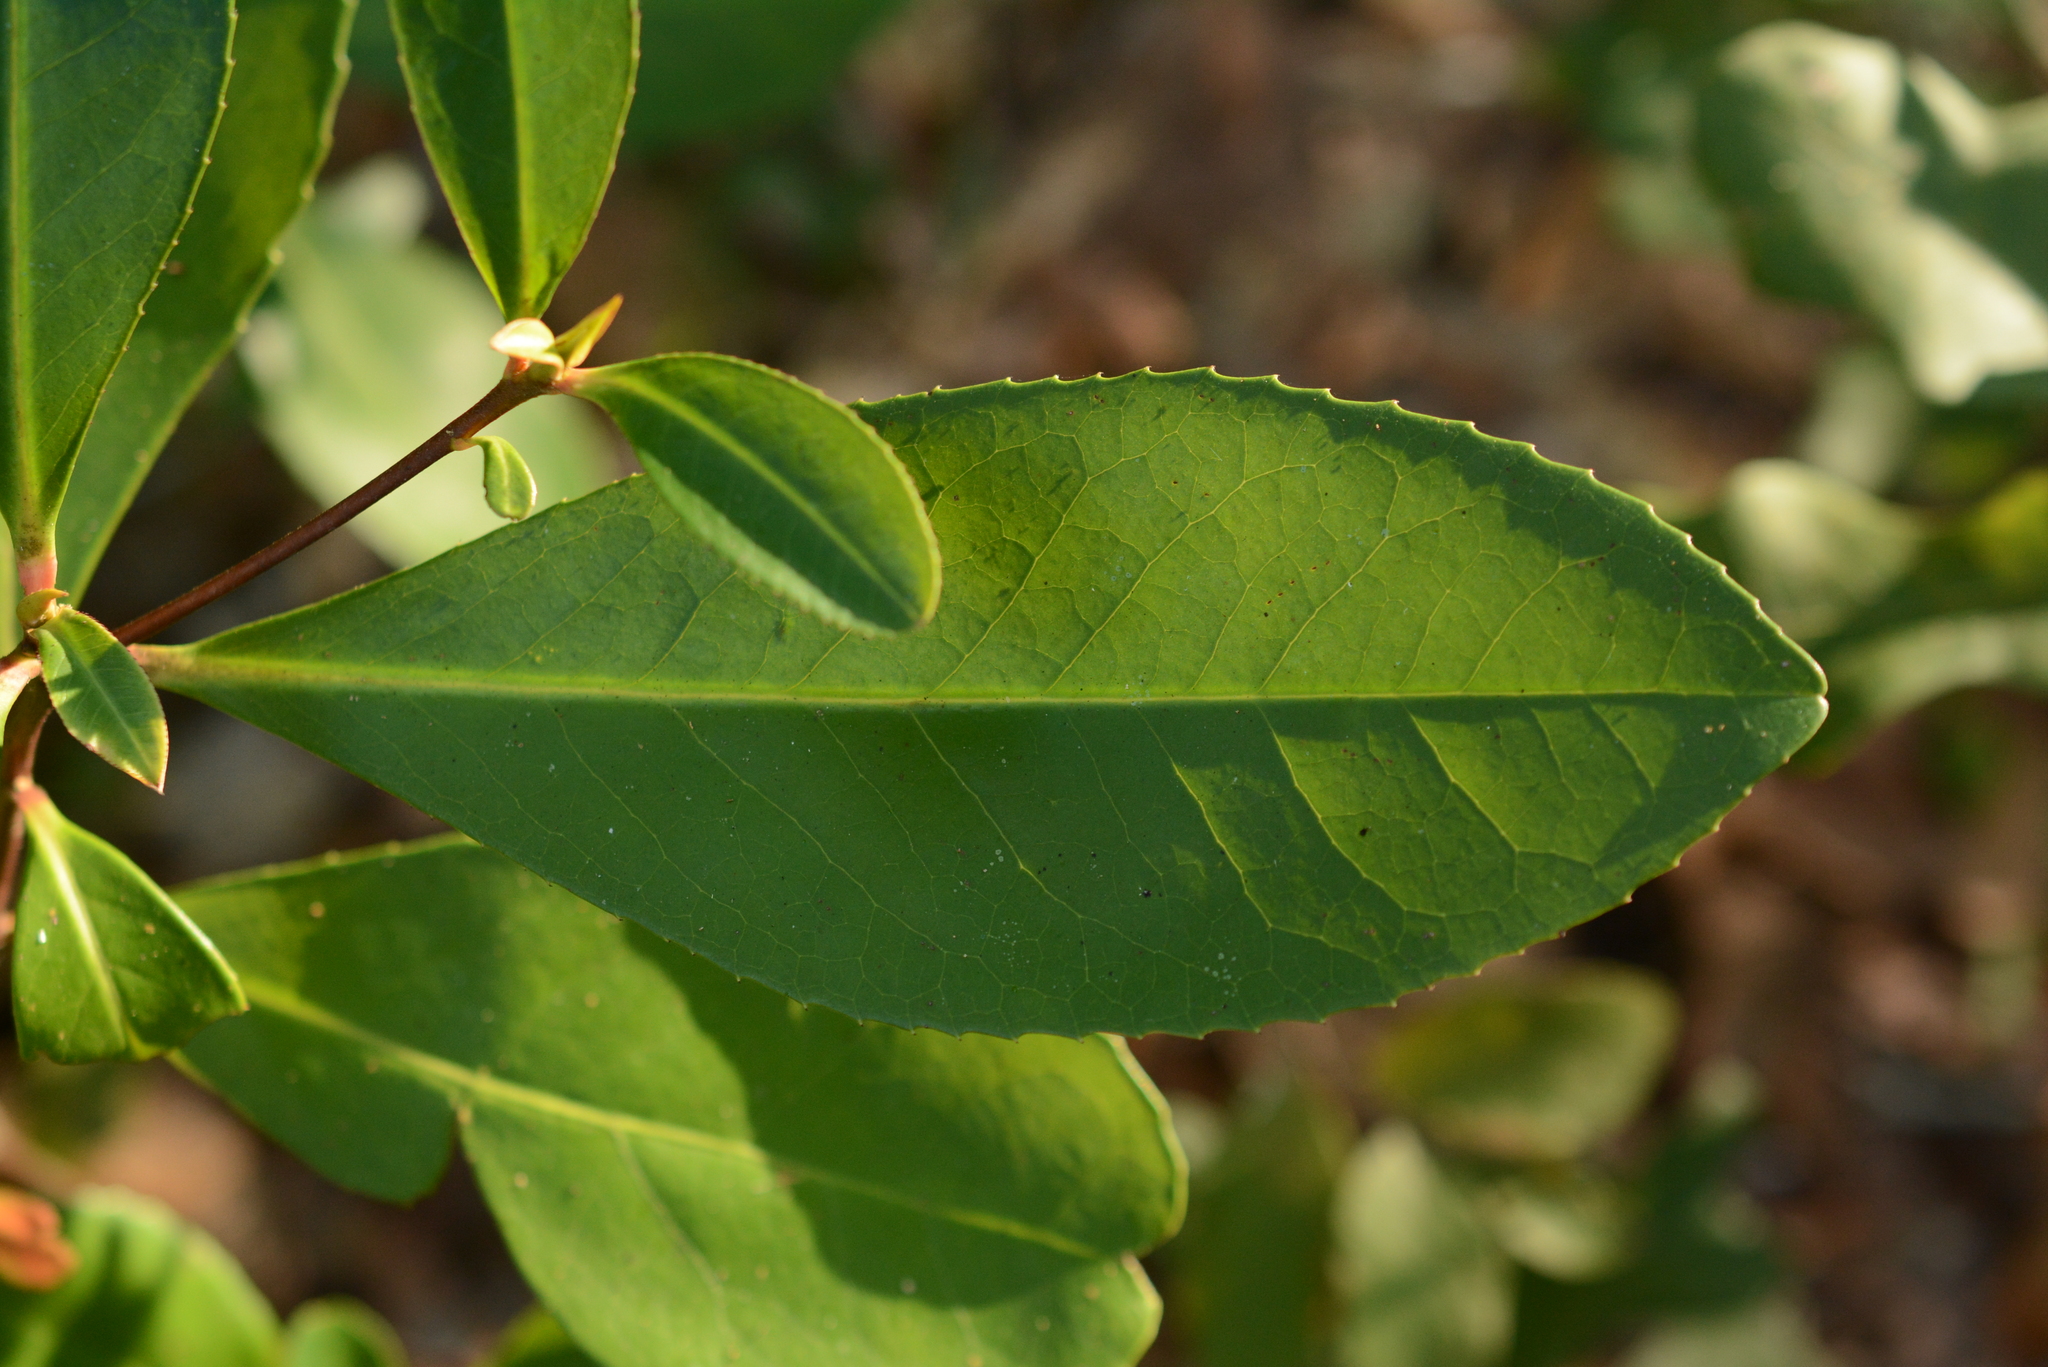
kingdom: Plantae
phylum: Tracheophyta
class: Magnoliopsida
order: Ericales
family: Theaceae
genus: Gordonia
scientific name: Gordonia lasianthus
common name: Loblolly bay
